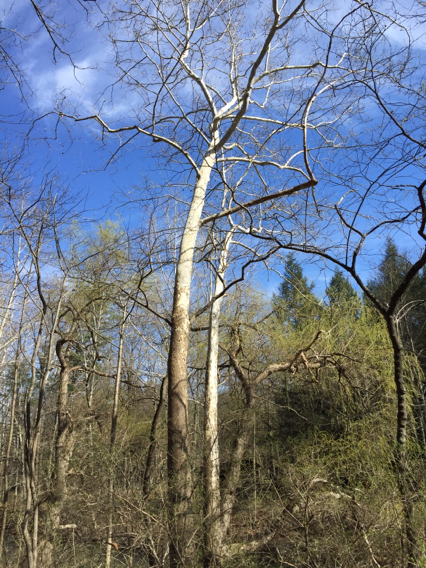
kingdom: Plantae
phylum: Tracheophyta
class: Magnoliopsida
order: Proteales
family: Platanaceae
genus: Platanus
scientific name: Platanus occidentalis
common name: American sycamore
